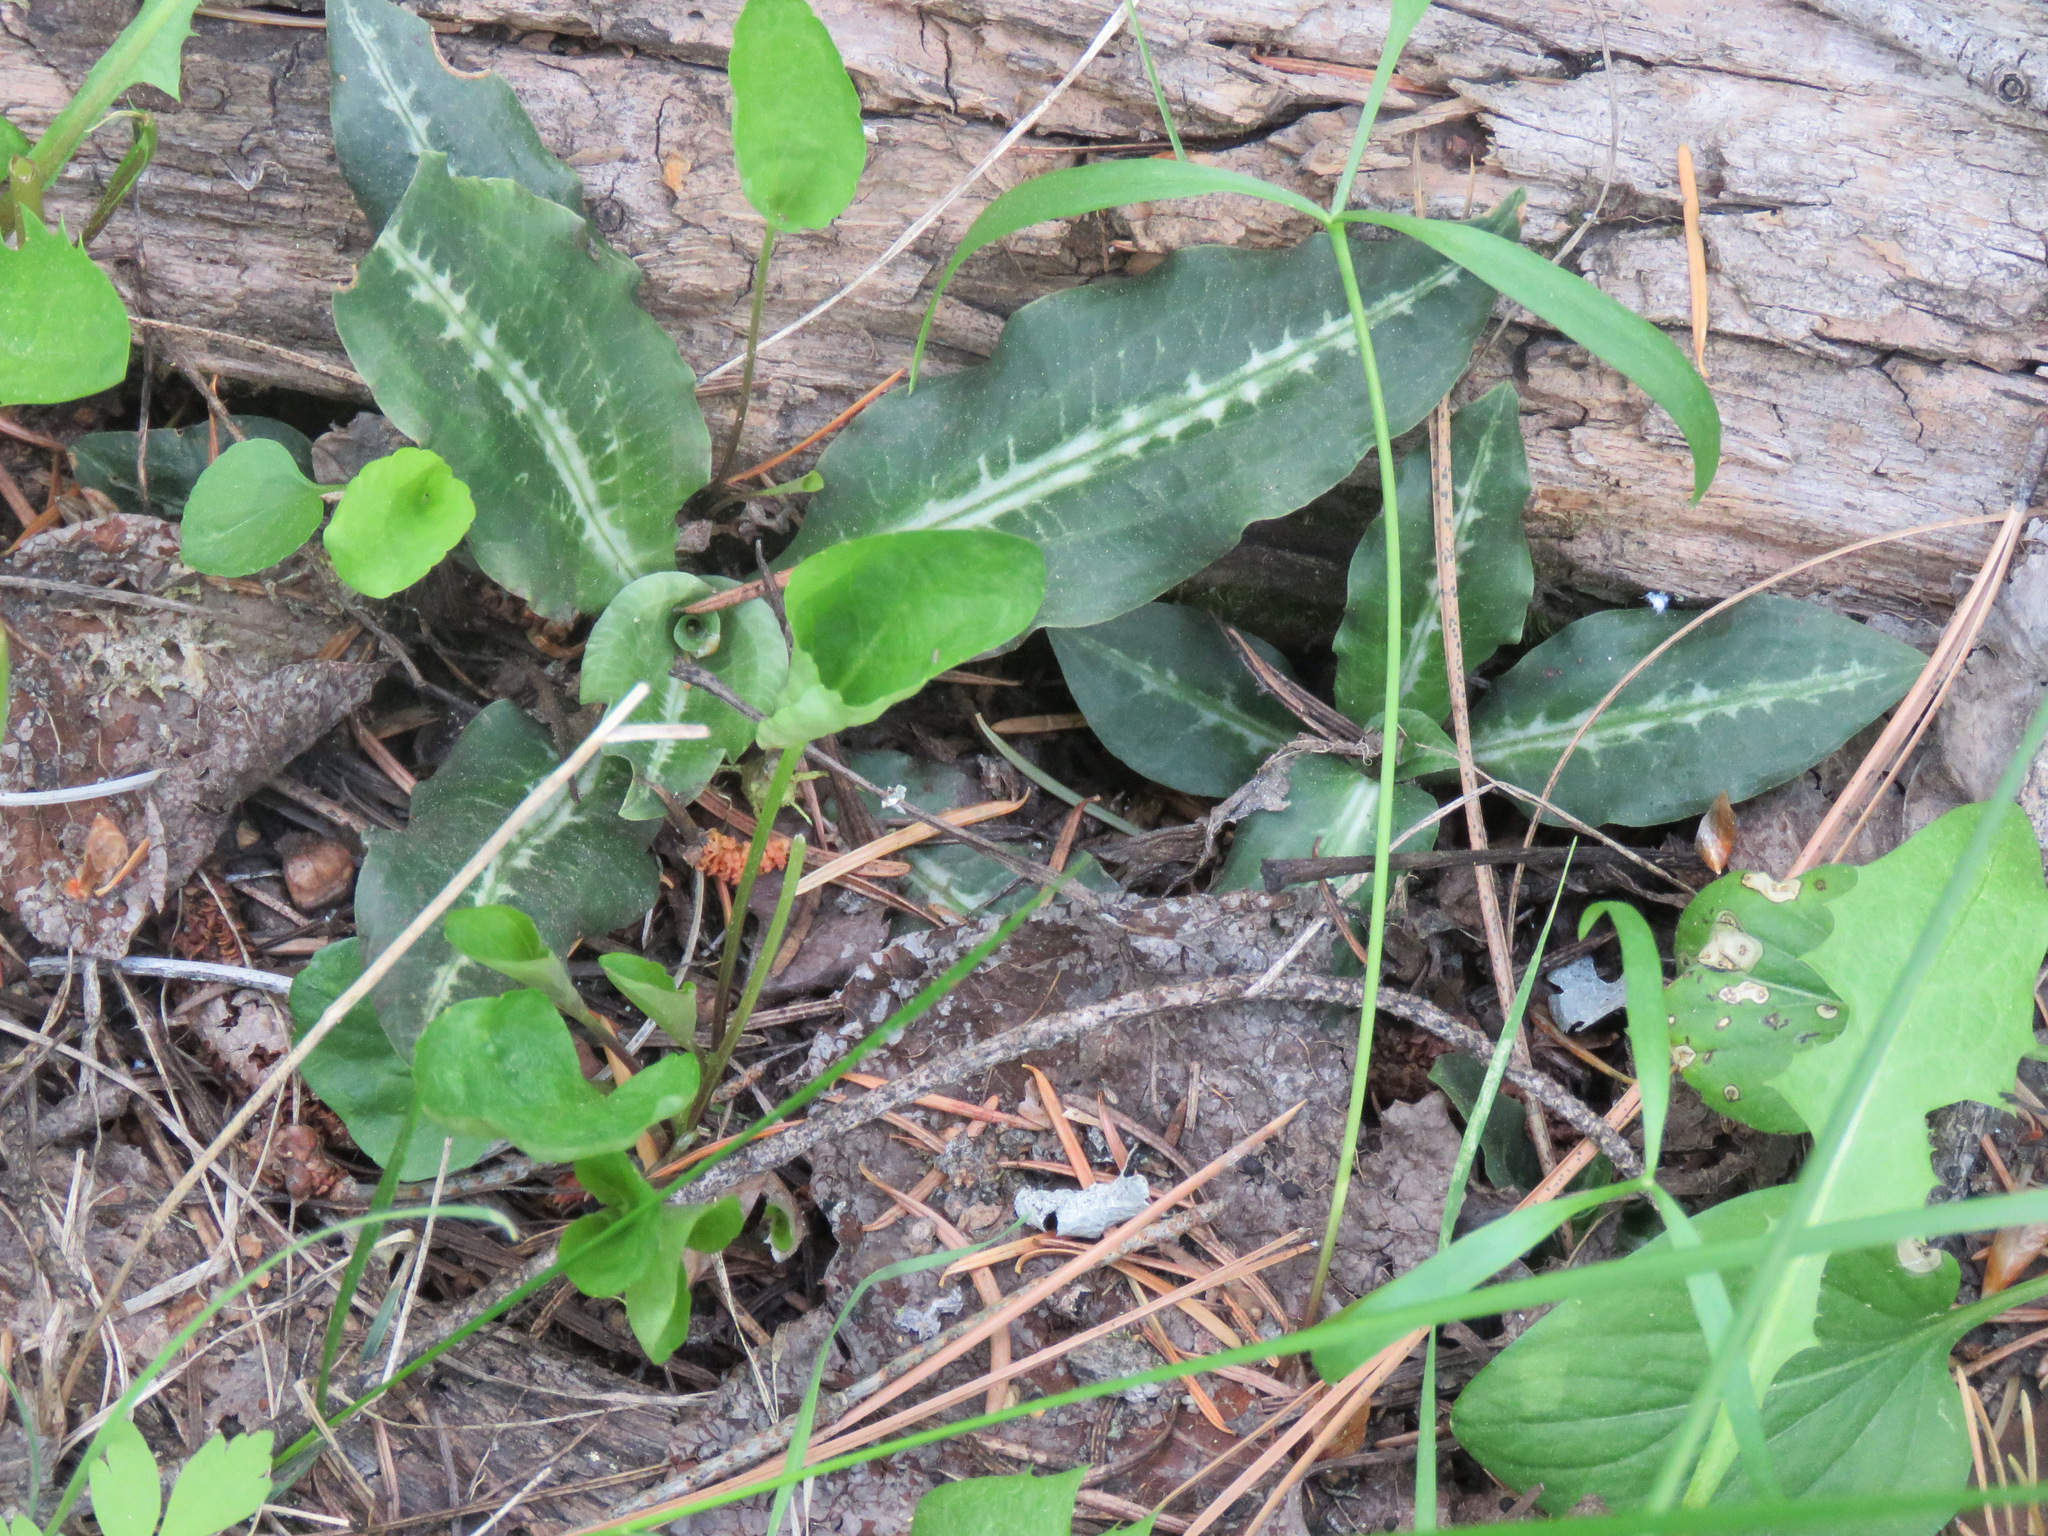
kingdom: Plantae
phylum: Tracheophyta
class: Liliopsida
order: Asparagales
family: Orchidaceae
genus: Goodyera
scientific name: Goodyera oblongifolia
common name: Giant rattlesnake-plantain
